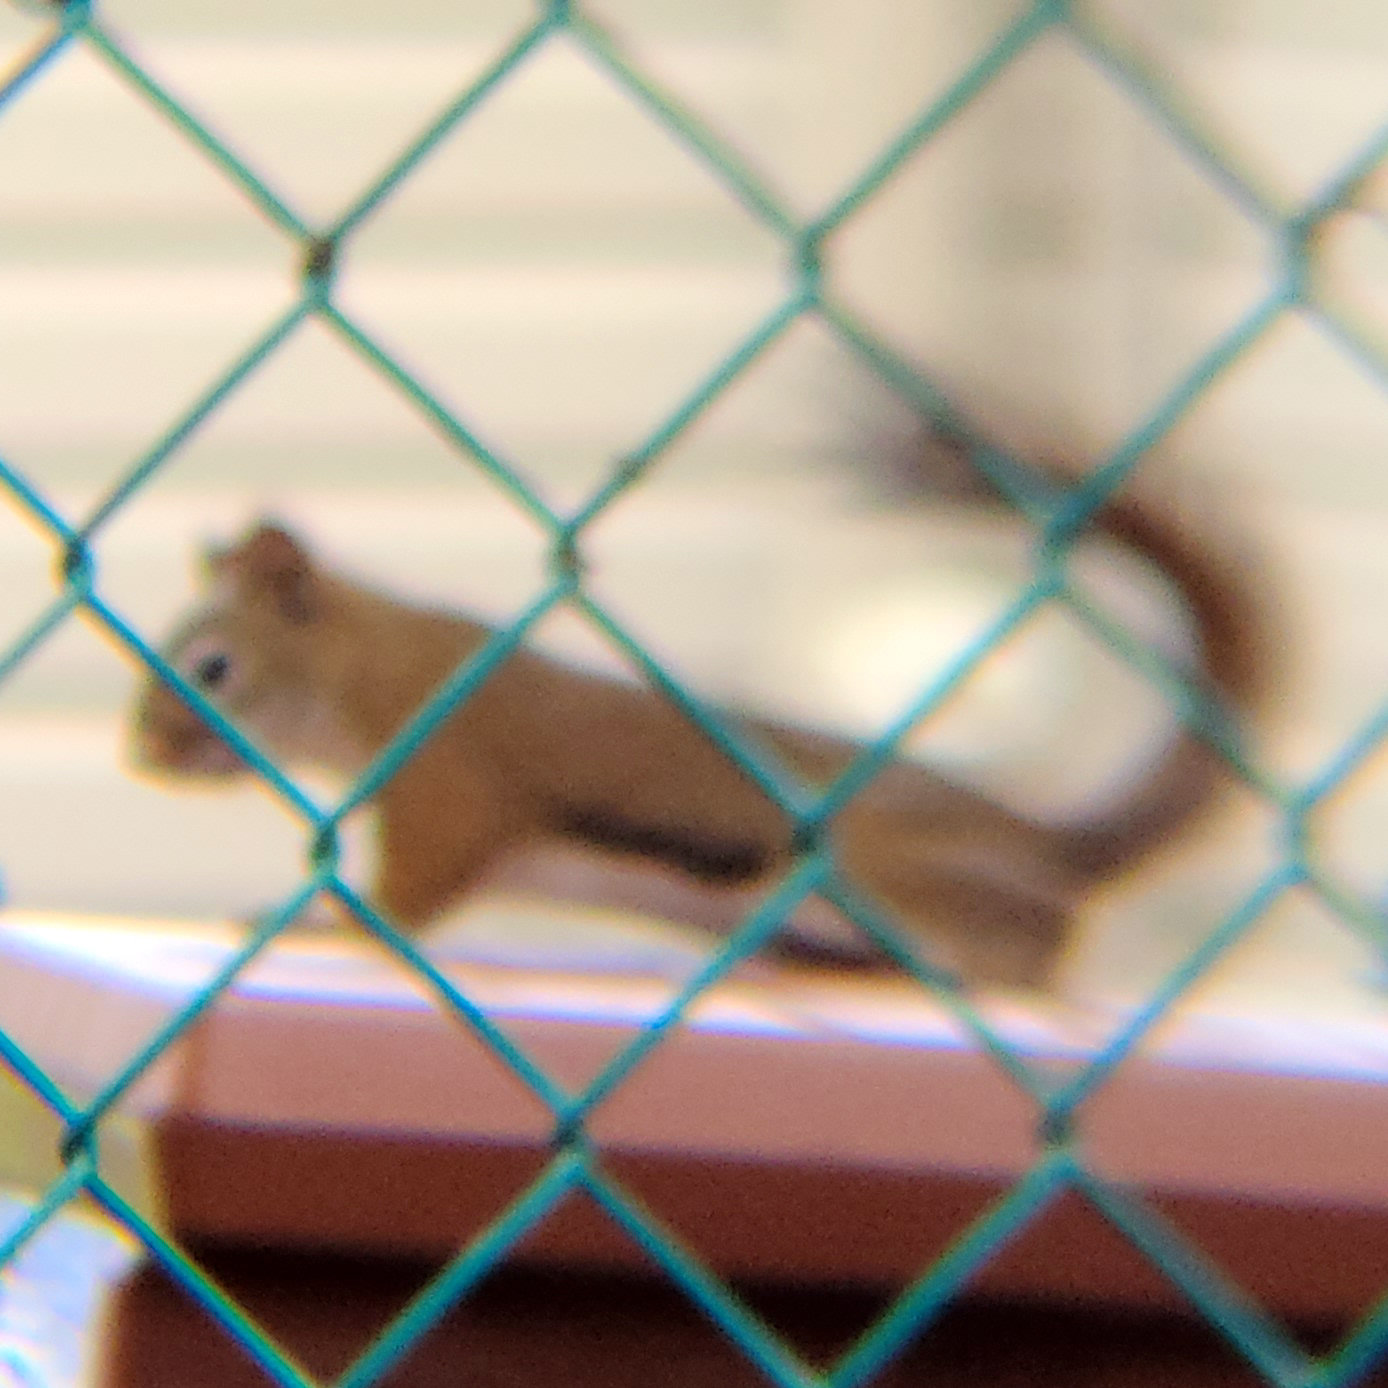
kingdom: Animalia
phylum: Chordata
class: Mammalia
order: Rodentia
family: Sciuridae
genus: Tamiasciurus
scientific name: Tamiasciurus hudsonicus
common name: Red squirrel
